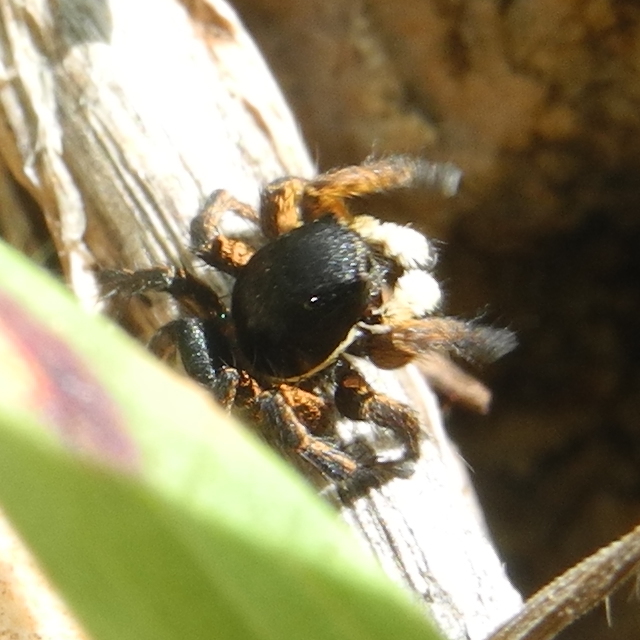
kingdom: Animalia
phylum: Arthropoda
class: Arachnida
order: Araneae
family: Salticidae
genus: Asianellus
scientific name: Asianellus festivus
